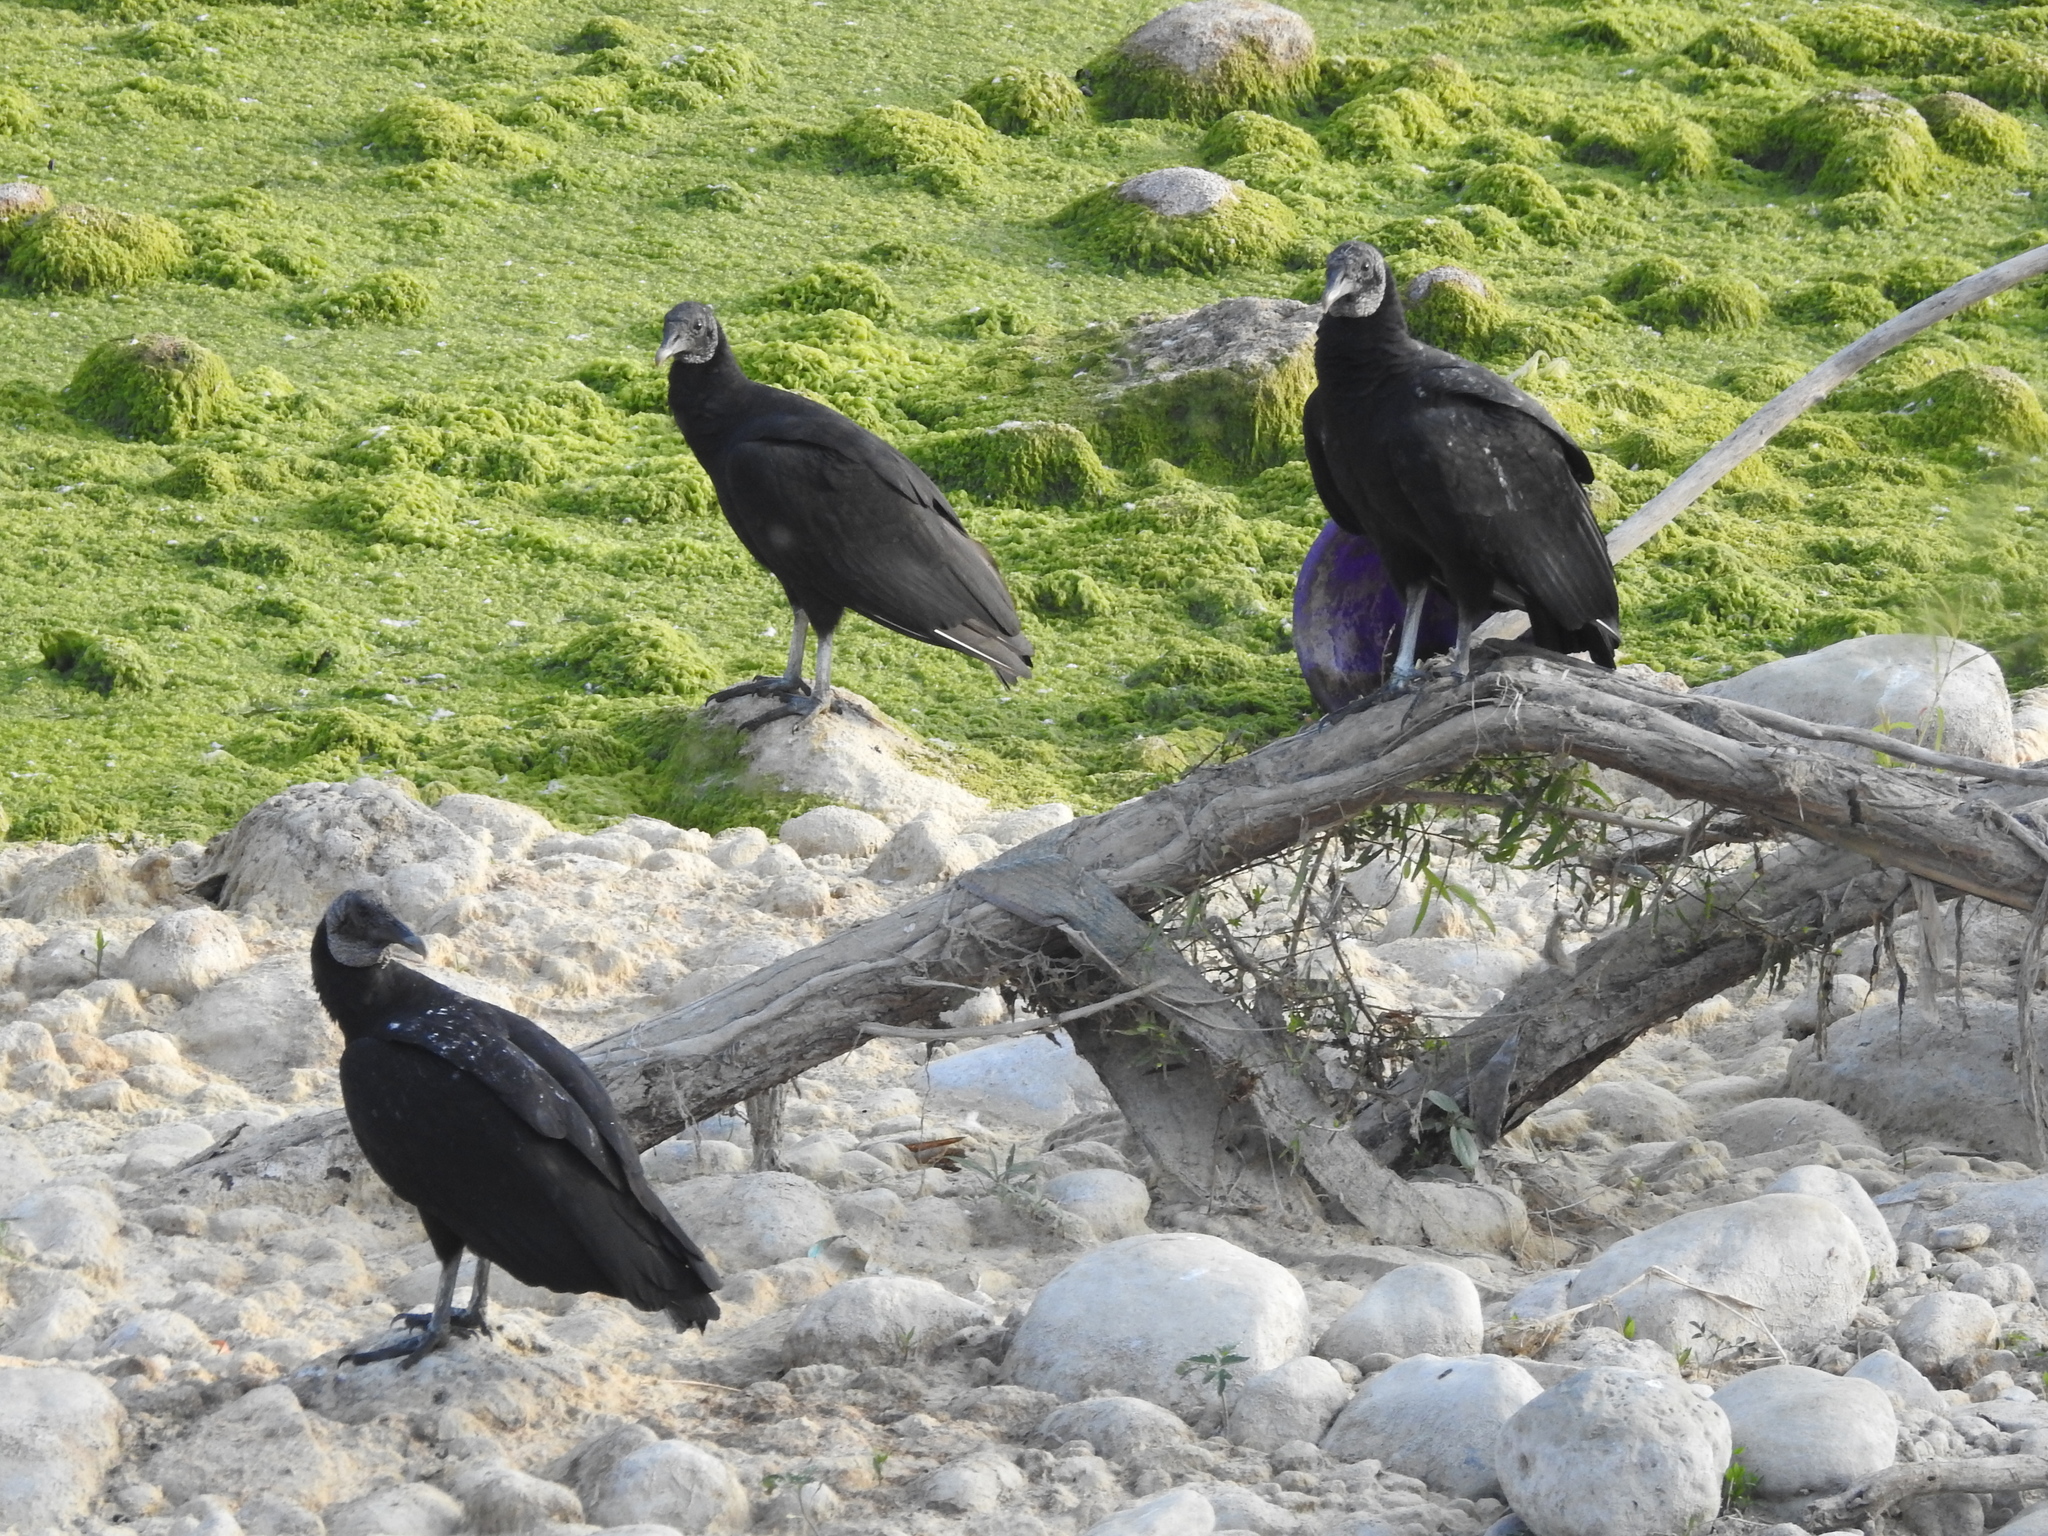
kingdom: Animalia
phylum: Chordata
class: Aves
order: Accipitriformes
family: Cathartidae
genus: Coragyps
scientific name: Coragyps atratus
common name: Black vulture
